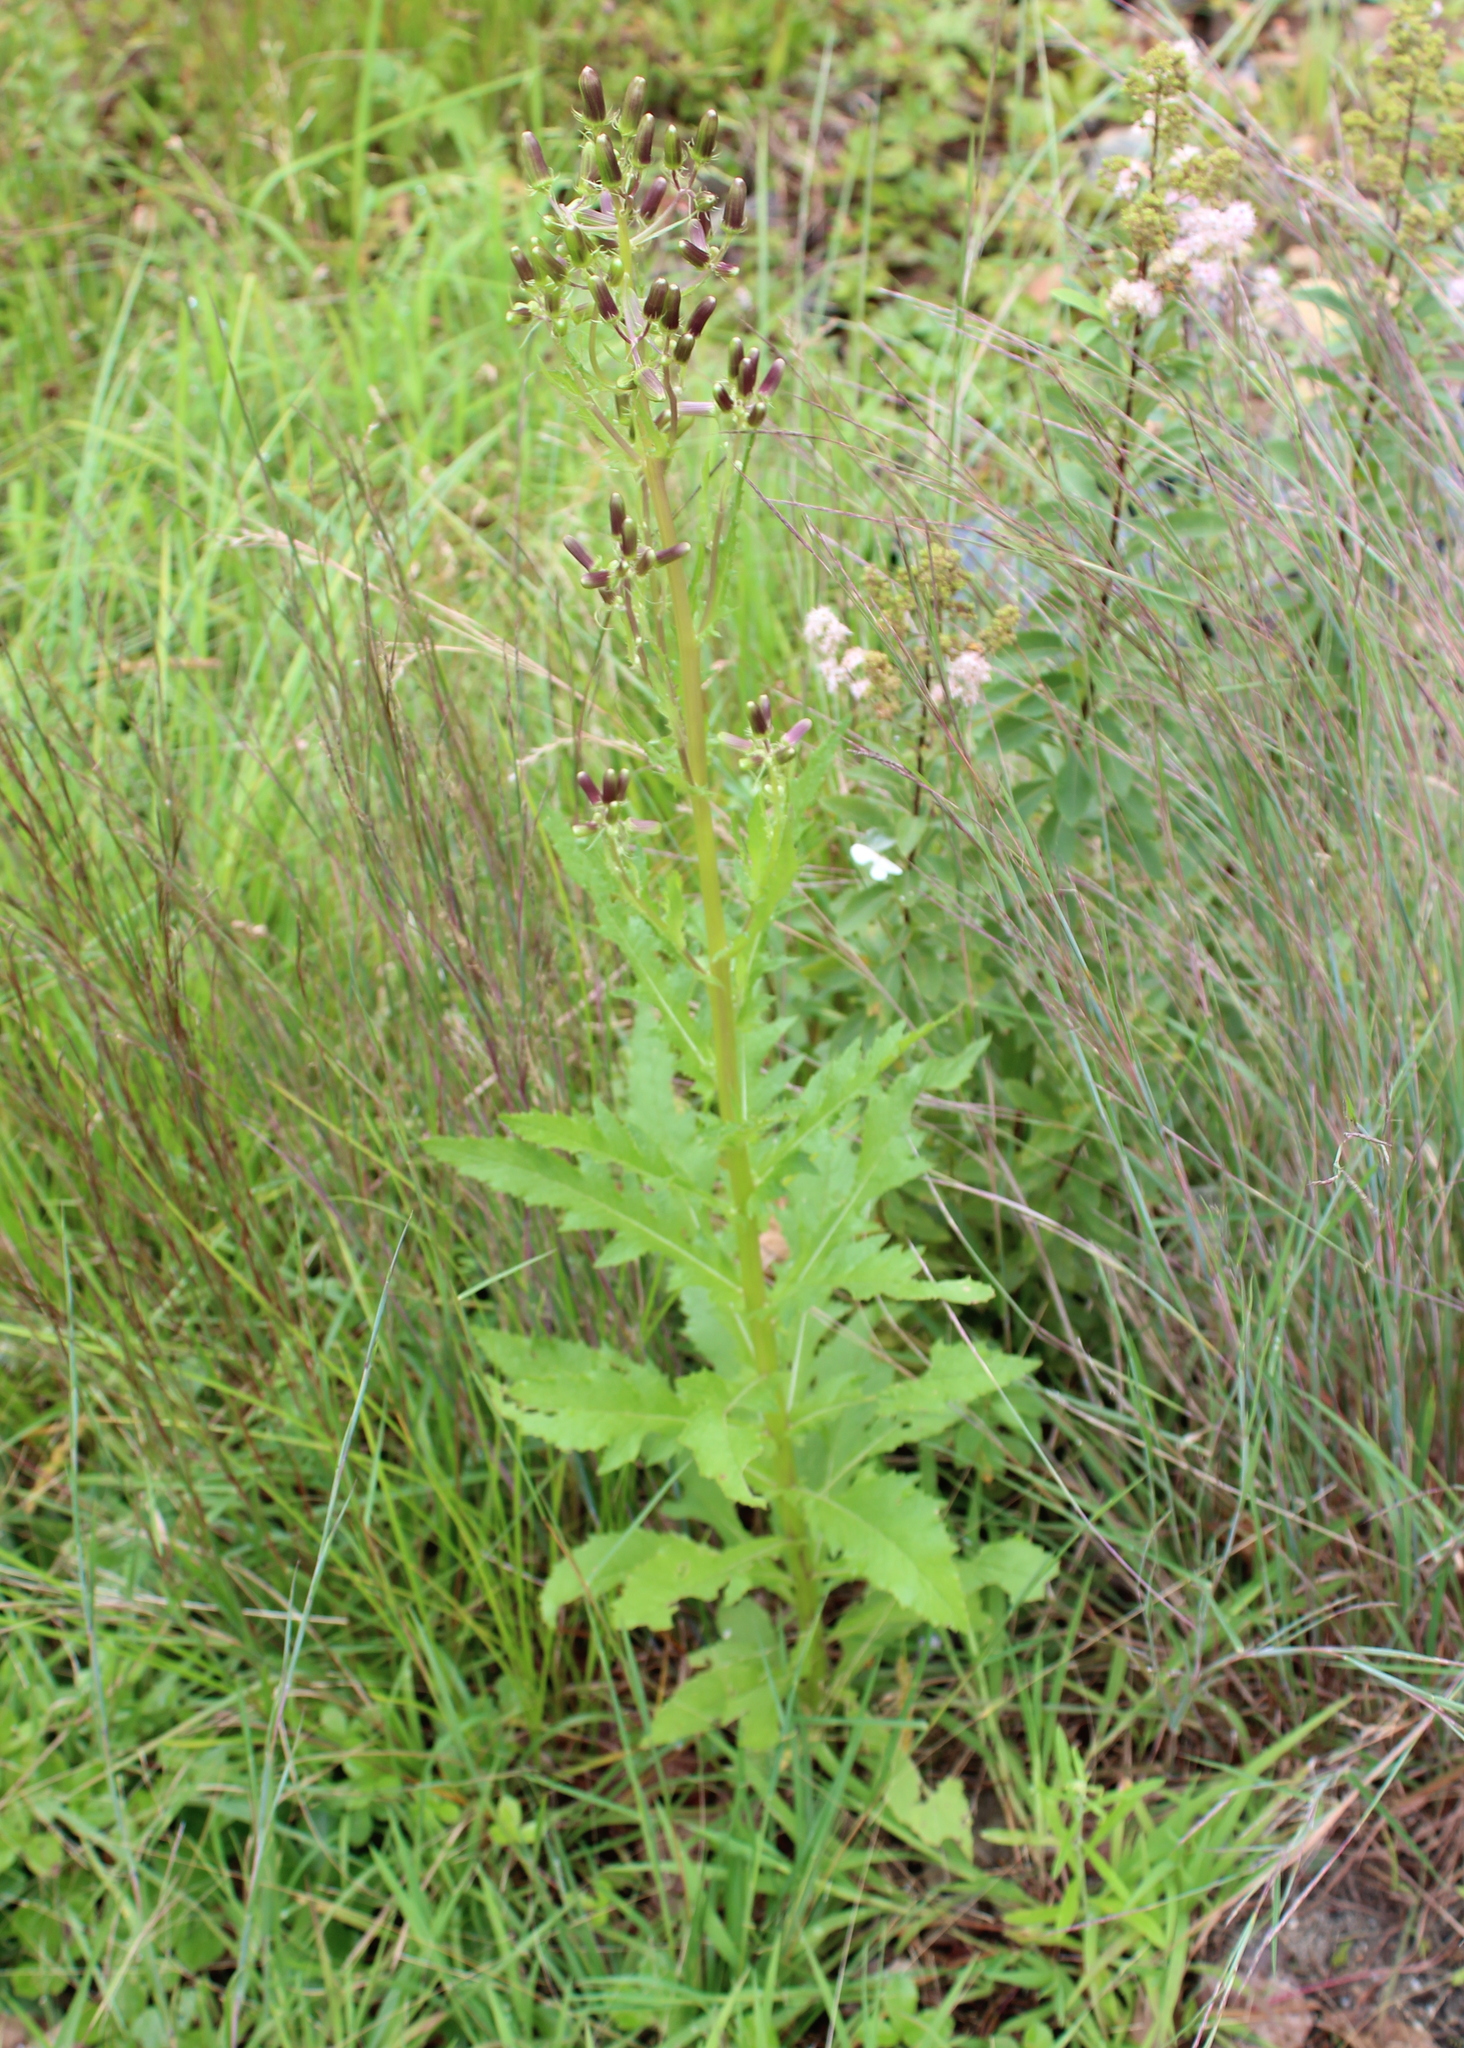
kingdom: Plantae
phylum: Tracheophyta
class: Magnoliopsida
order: Asterales
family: Asteraceae
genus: Erechtites
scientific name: Erechtites hieraciifolius
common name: American burnweed
